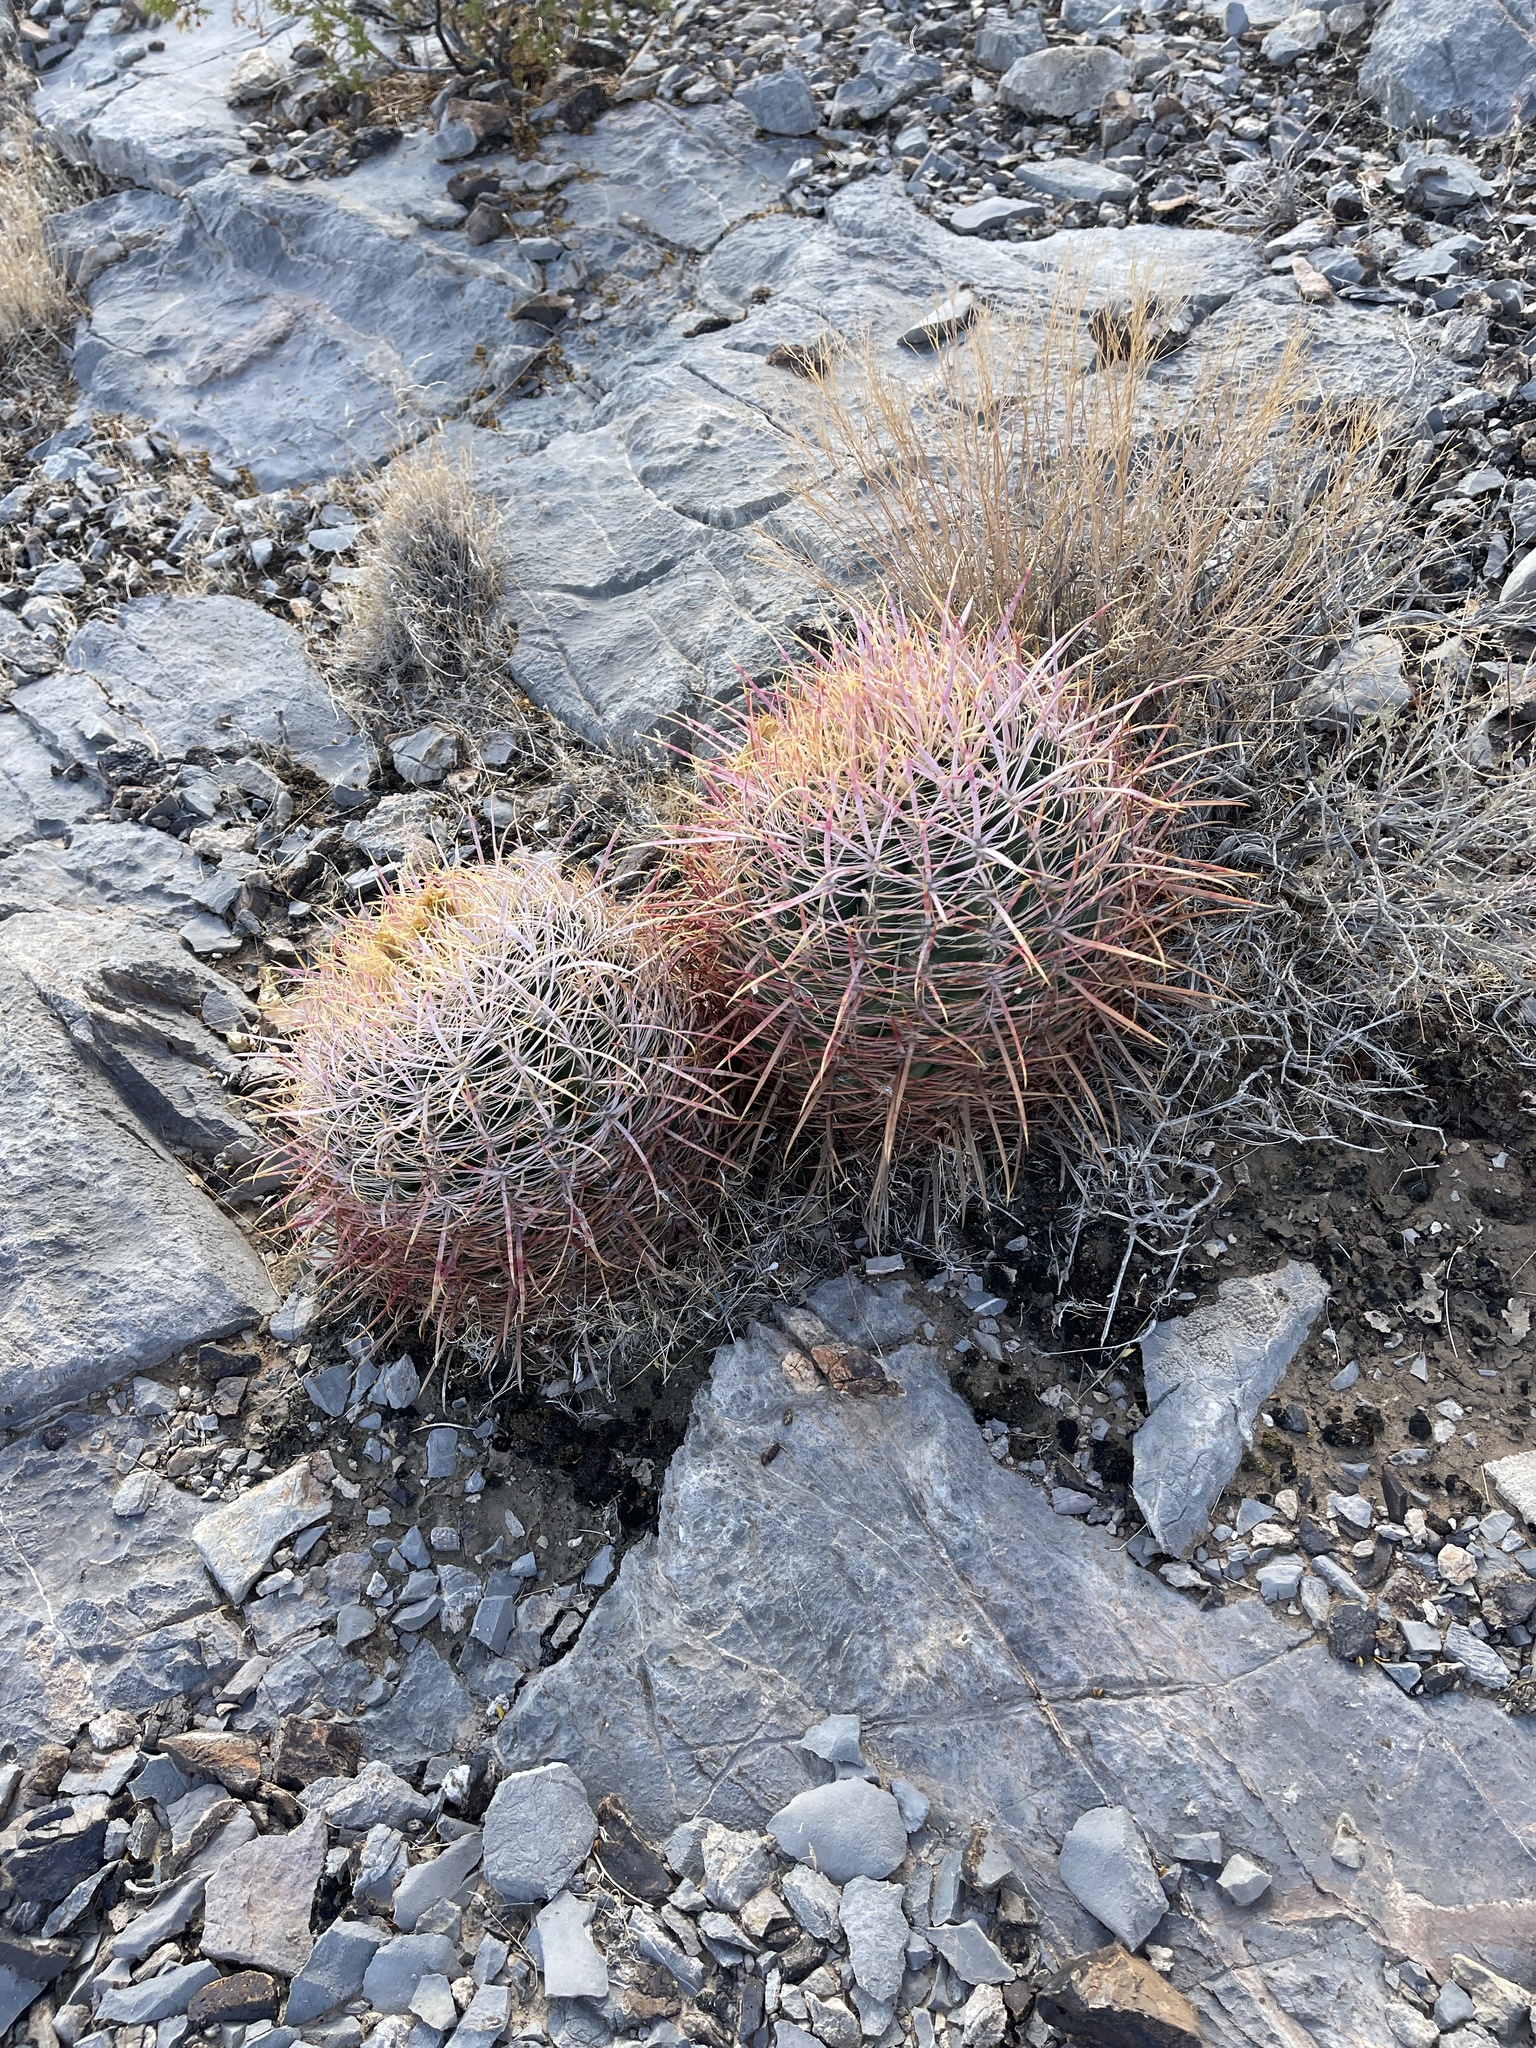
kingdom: Plantae
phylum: Tracheophyta
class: Magnoliopsida
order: Caryophyllales
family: Cactaceae
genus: Ferocactus
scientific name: Ferocactus cylindraceus
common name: California barrel cactus
